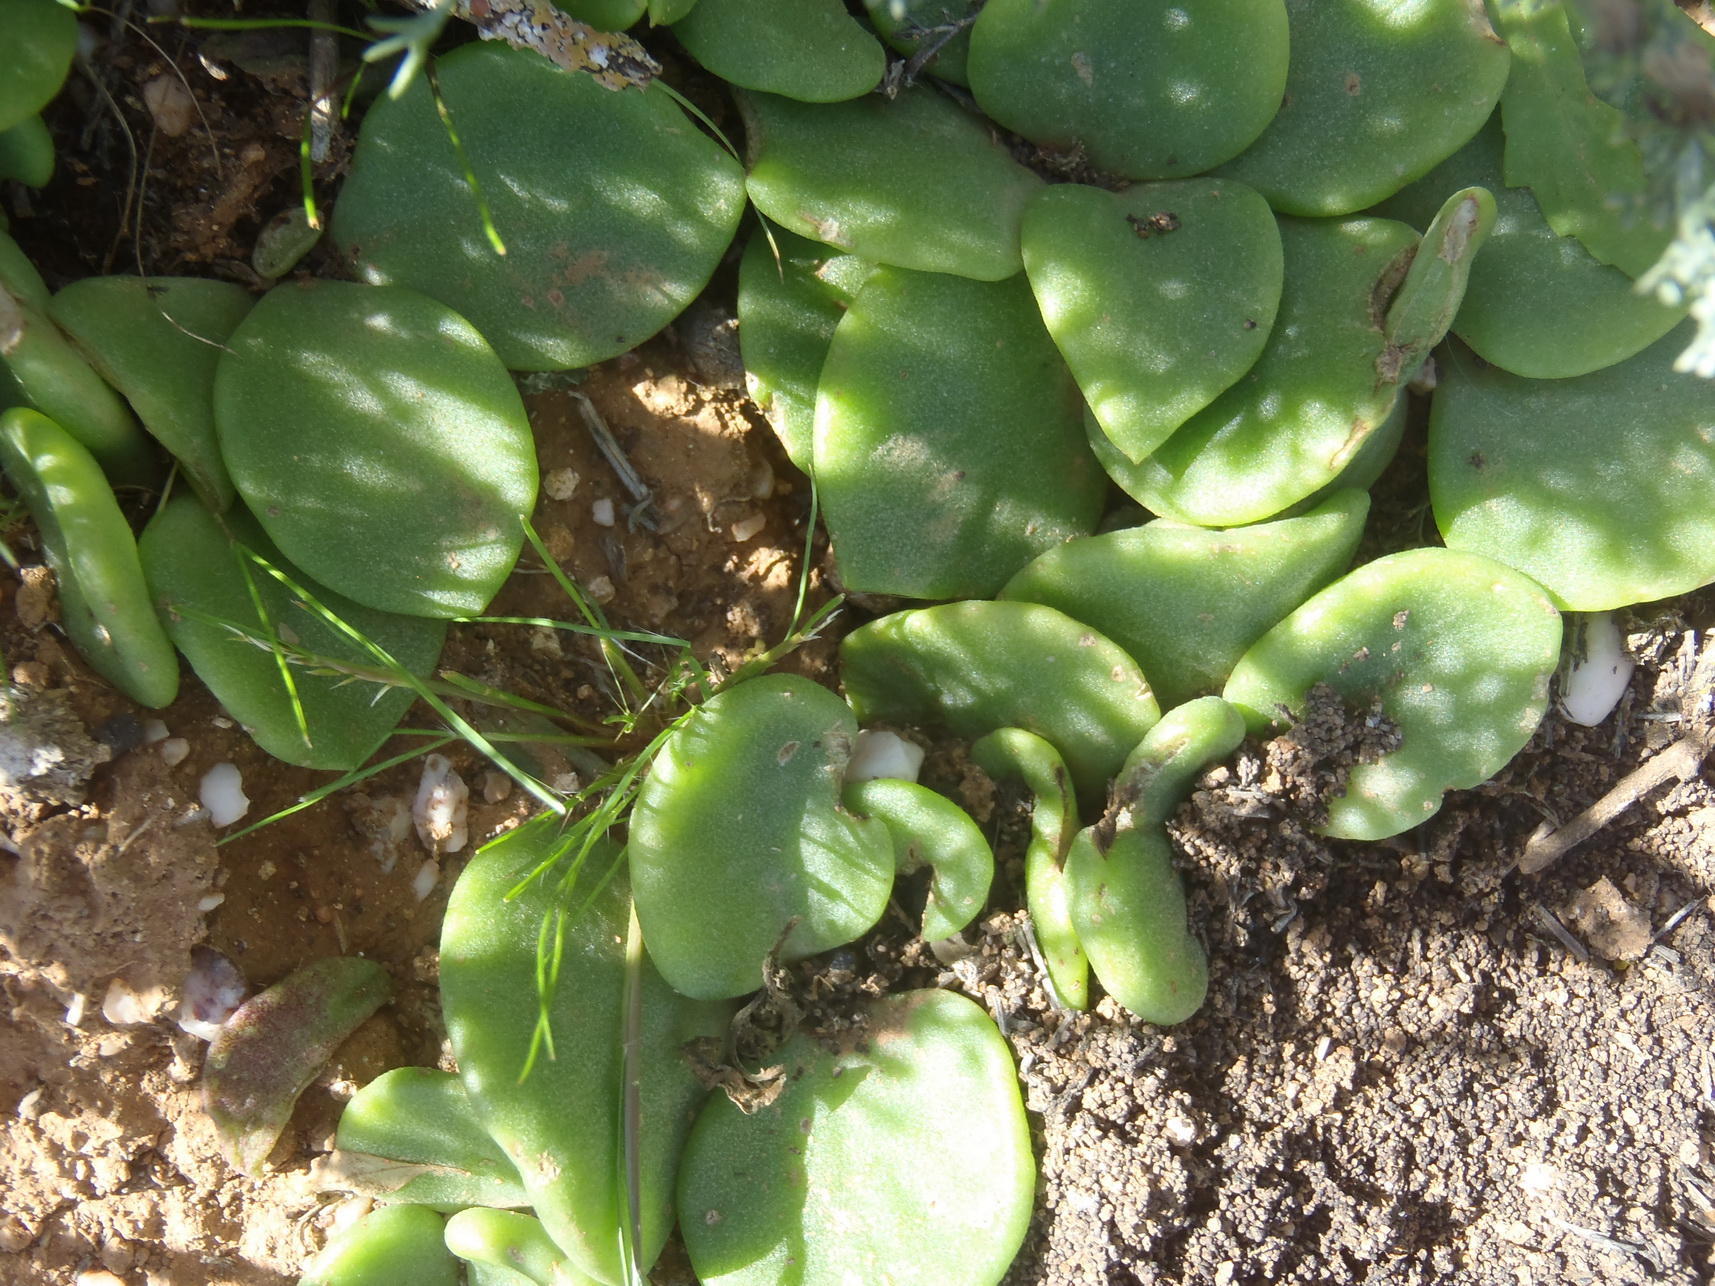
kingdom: Plantae
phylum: Tracheophyta
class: Magnoliopsida
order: Saxifragales
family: Crassulaceae
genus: Tylecodon
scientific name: Tylecodon ventricosus
